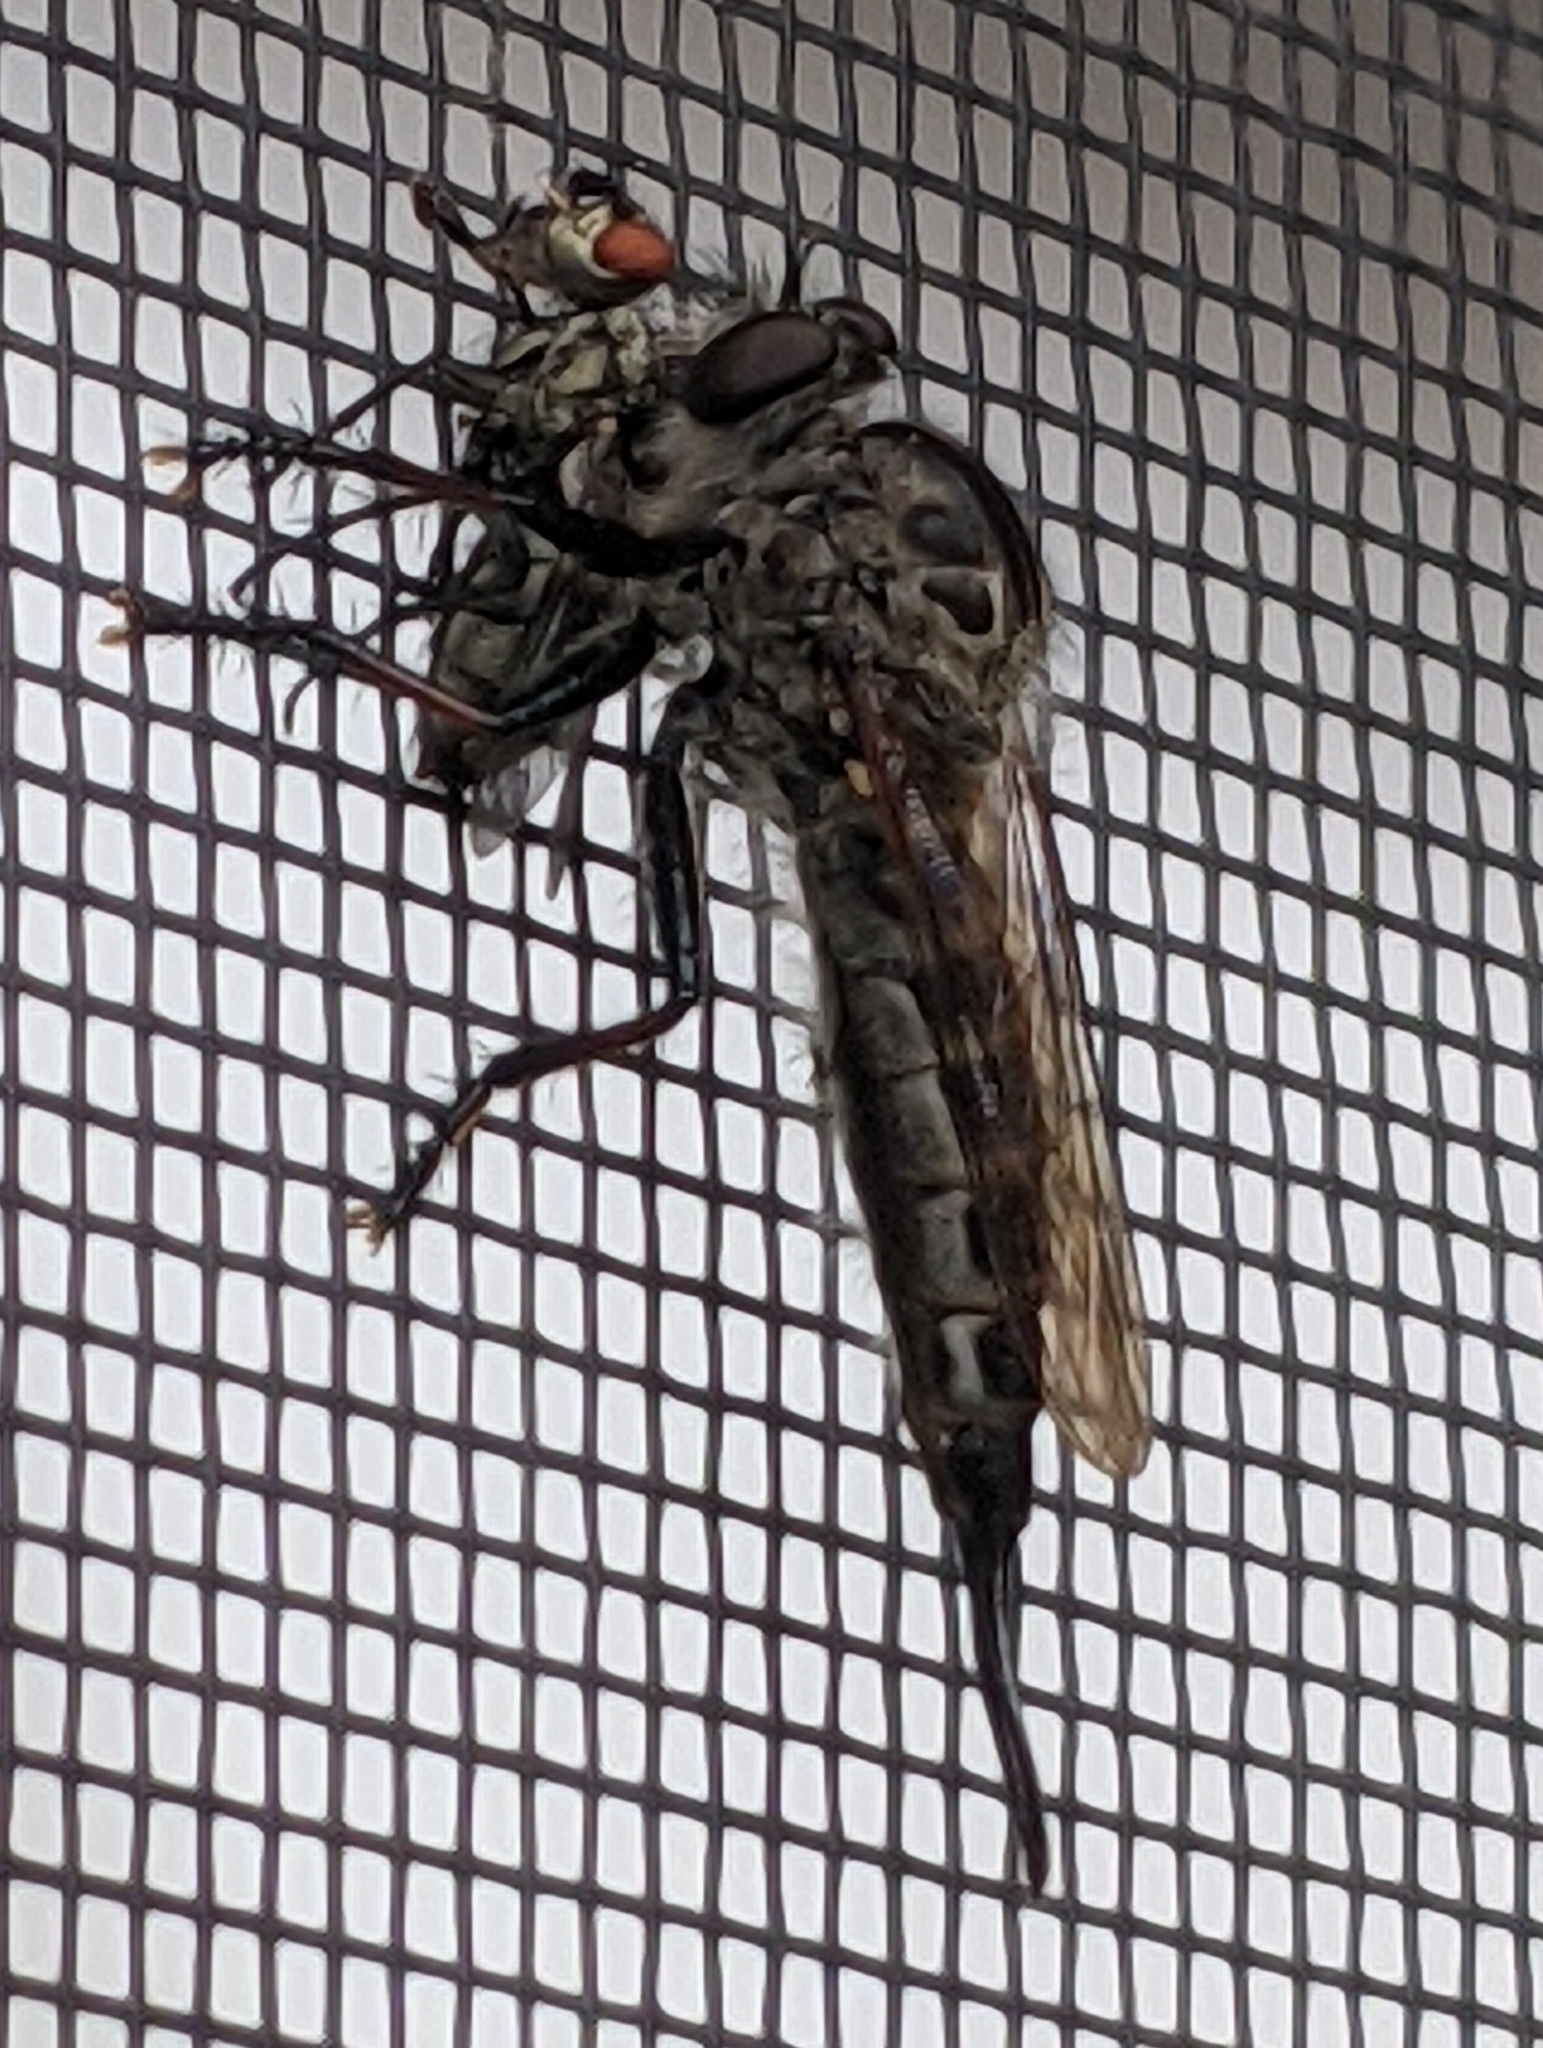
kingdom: Animalia
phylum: Arthropoda
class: Insecta
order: Diptera
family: Asilidae
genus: Efferia
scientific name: Efferia aestuans
